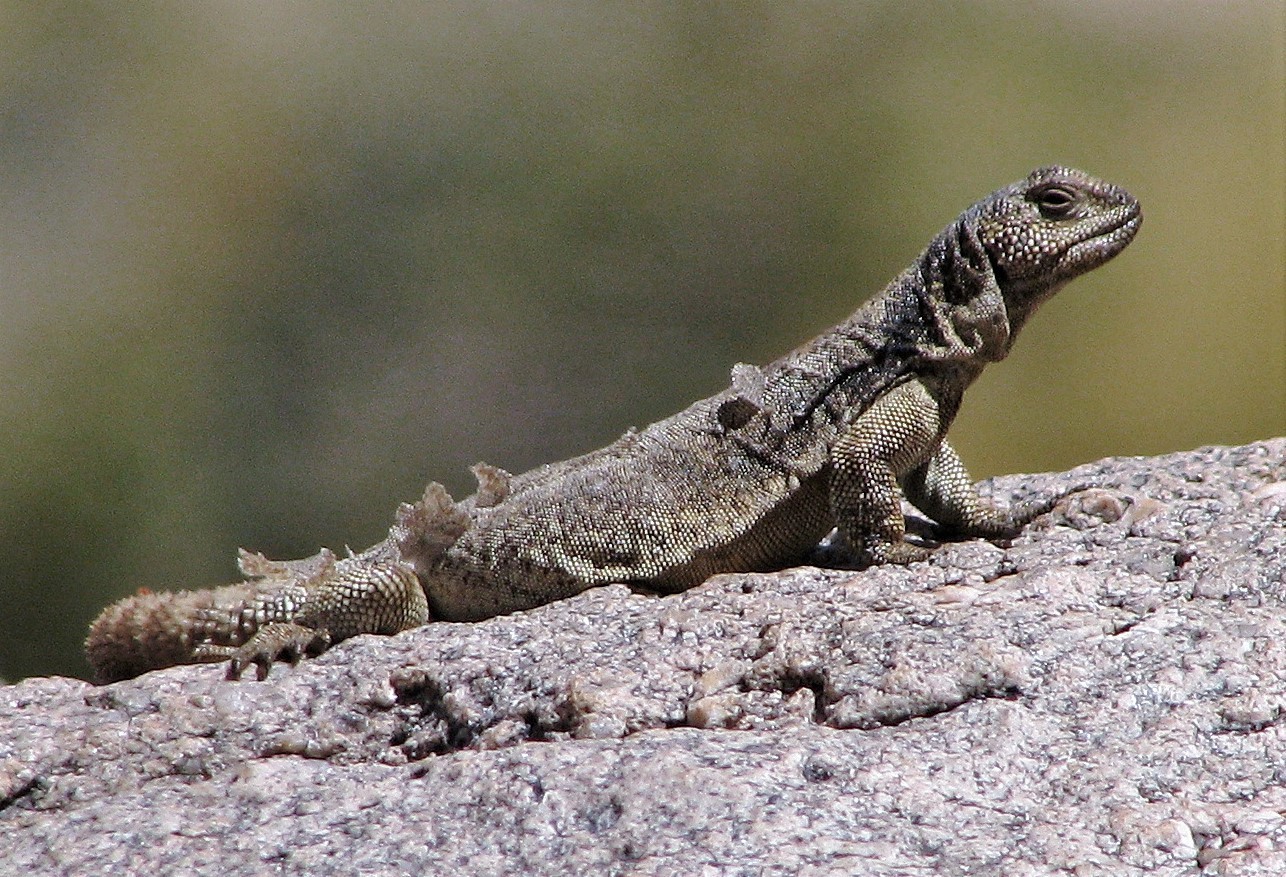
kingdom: Animalia
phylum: Chordata
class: Squamata
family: Liolaemidae
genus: Phymaturus
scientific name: Phymaturus punae
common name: Cei's mountain lizard
